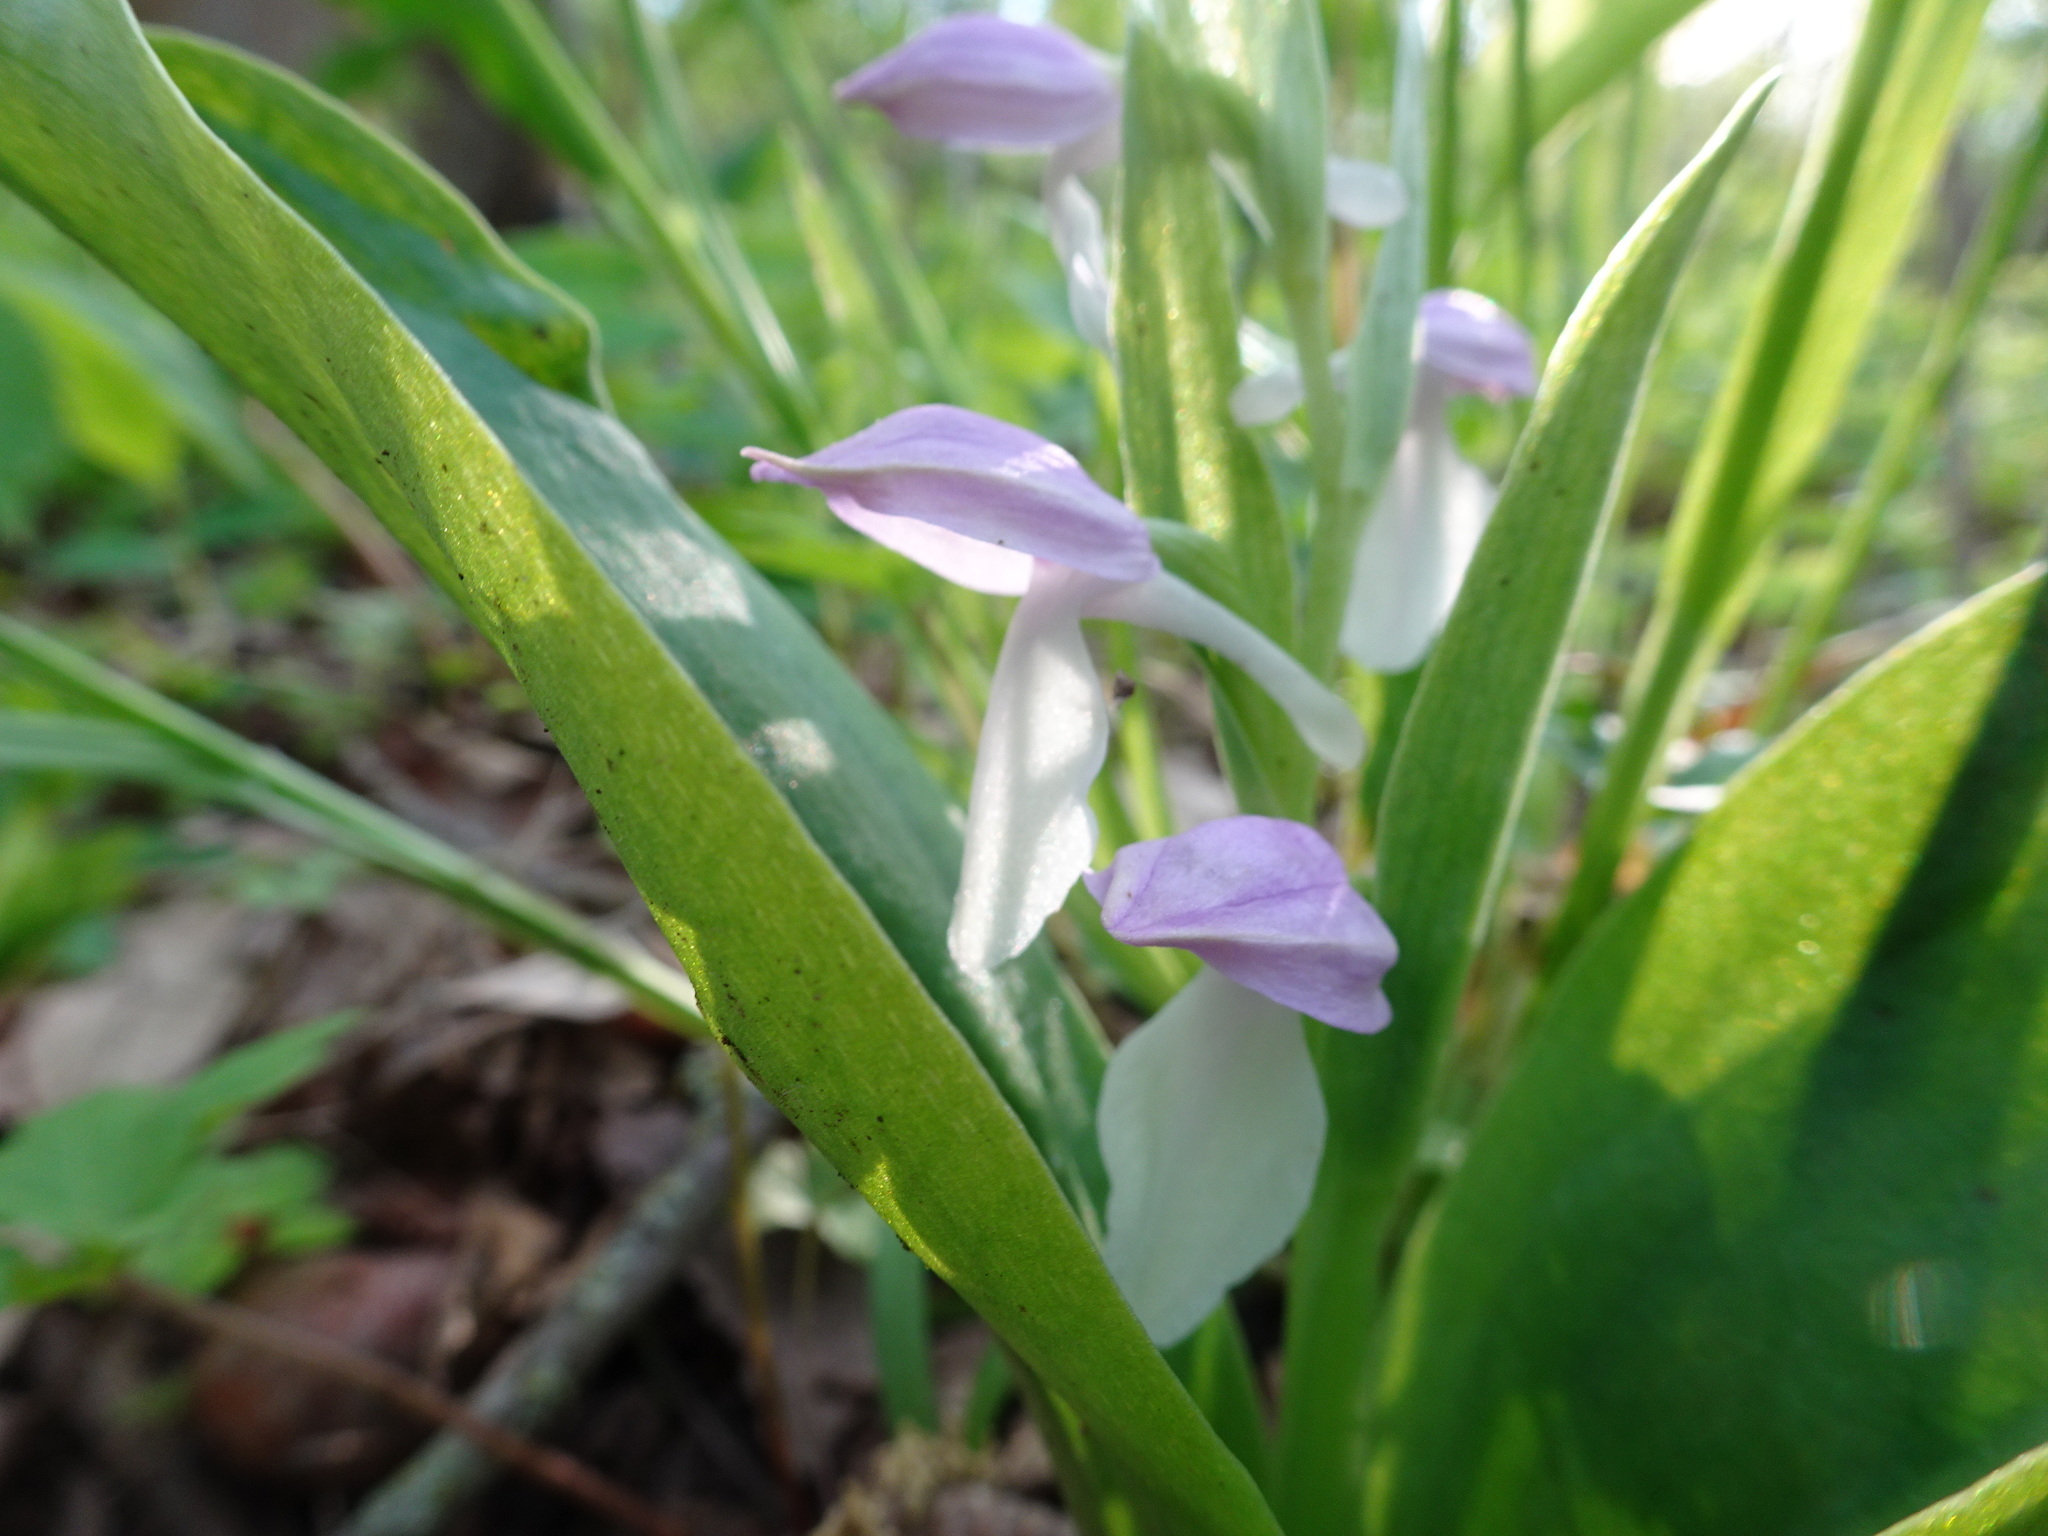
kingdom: Plantae
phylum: Tracheophyta
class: Liliopsida
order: Asparagales
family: Orchidaceae
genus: Galearis
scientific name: Galearis spectabilis
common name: Purple-hooded orchis
